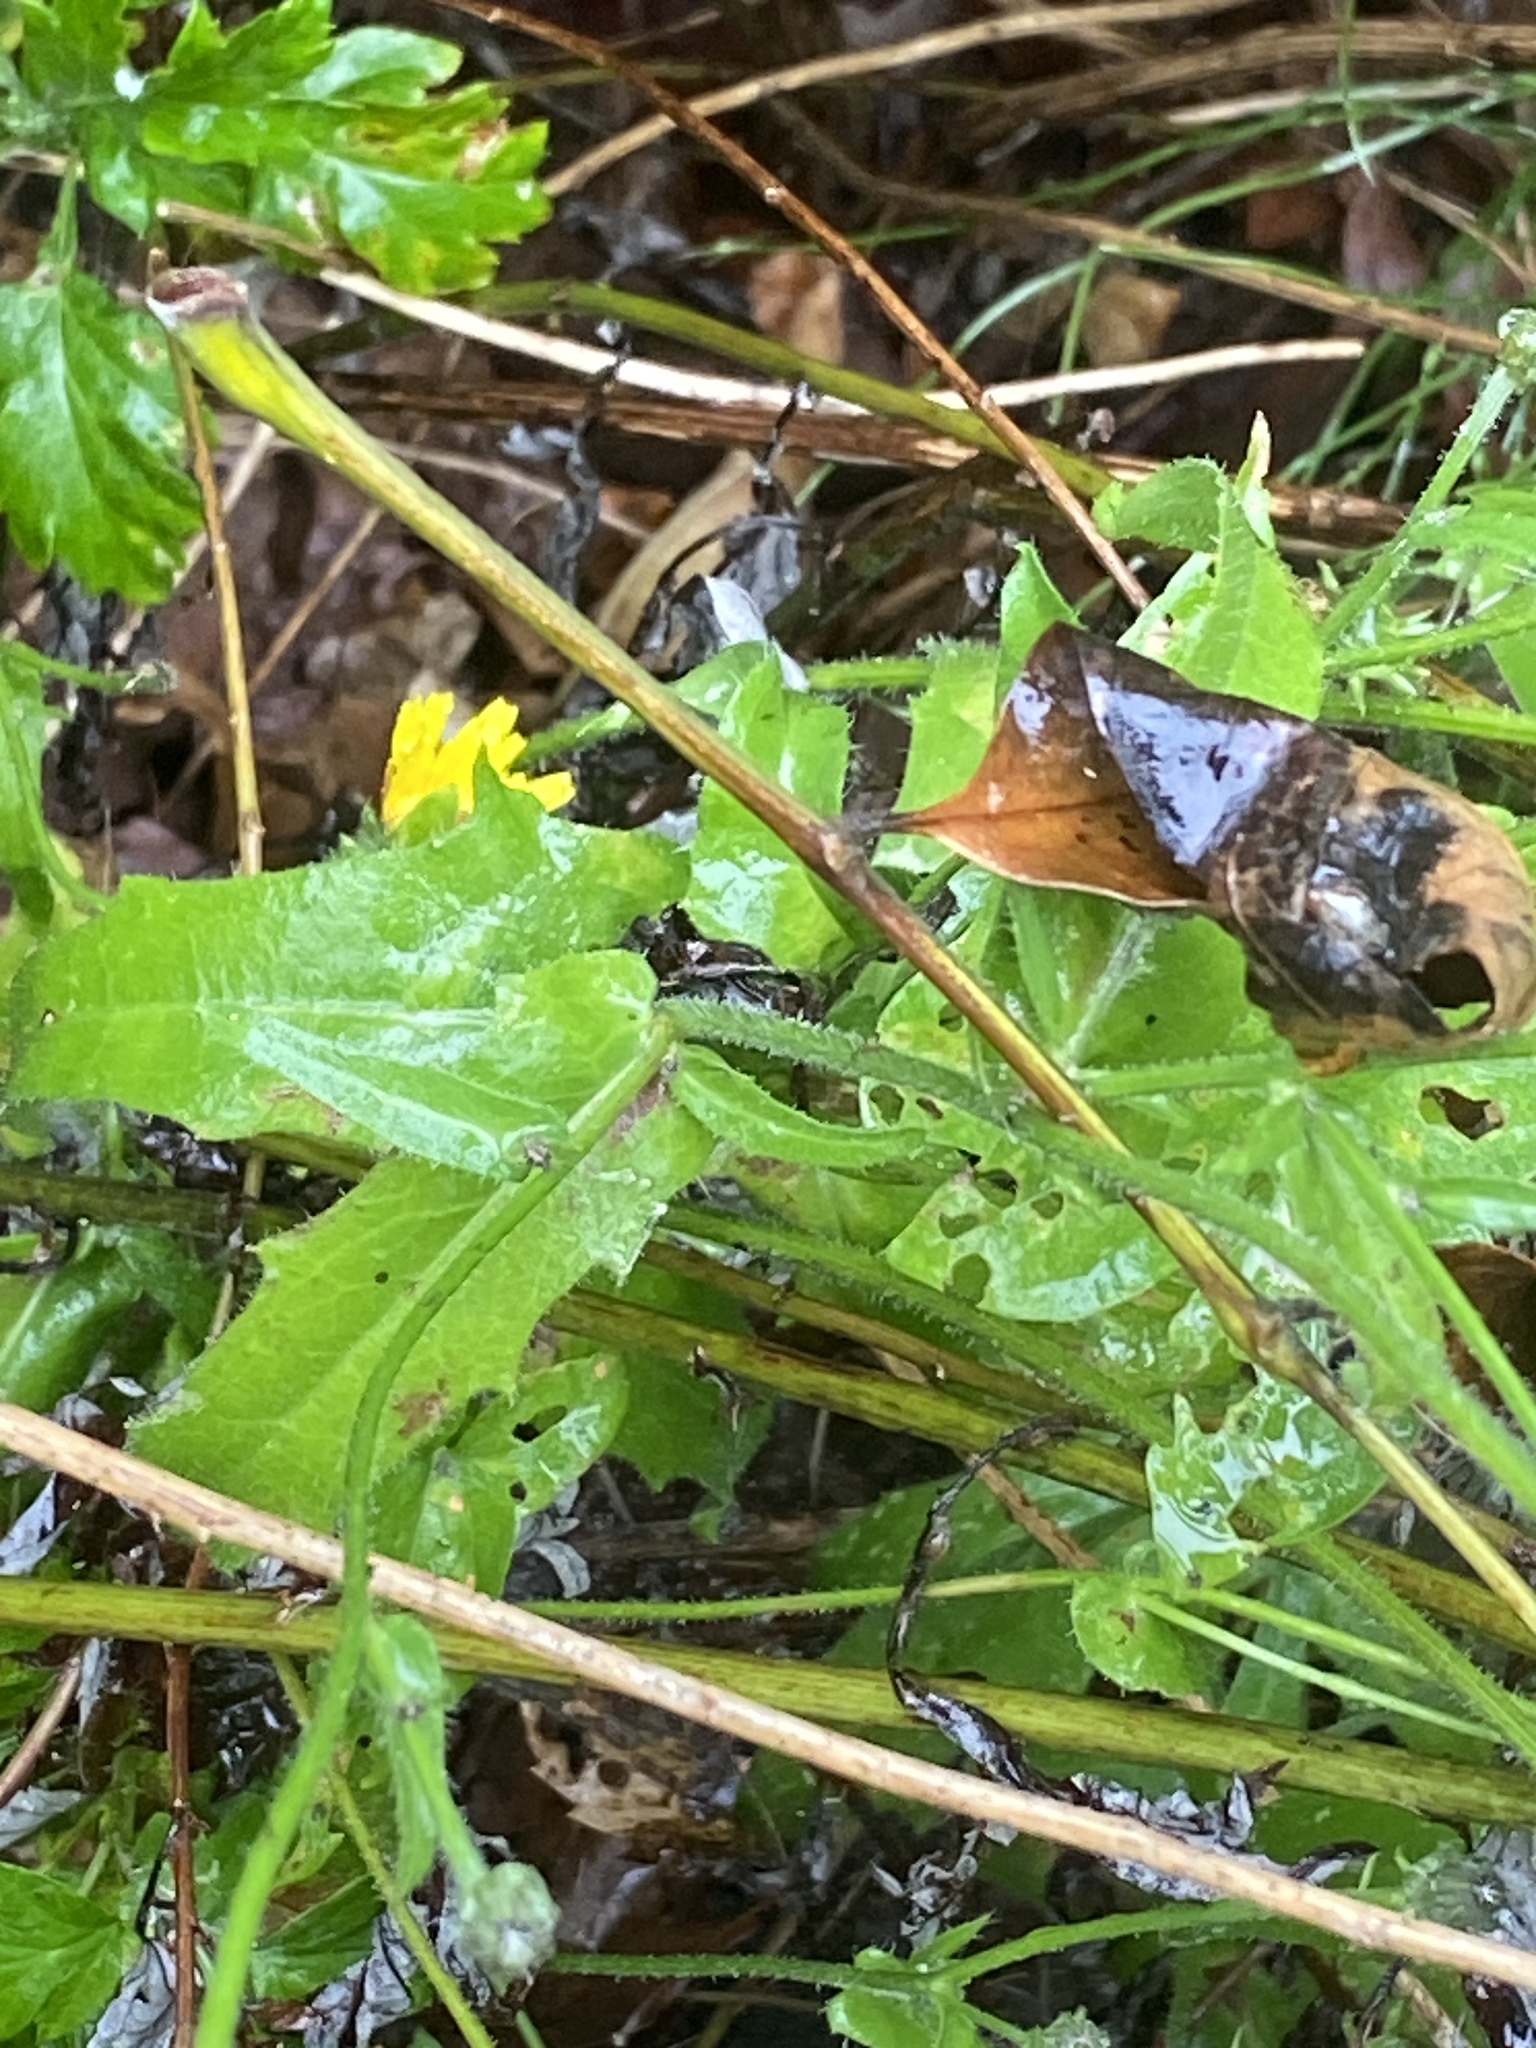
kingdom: Plantae
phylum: Tracheophyta
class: Magnoliopsida
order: Asterales
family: Asteraceae
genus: Picris
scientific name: Picris hieracioides
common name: Hawkweed oxtongue
